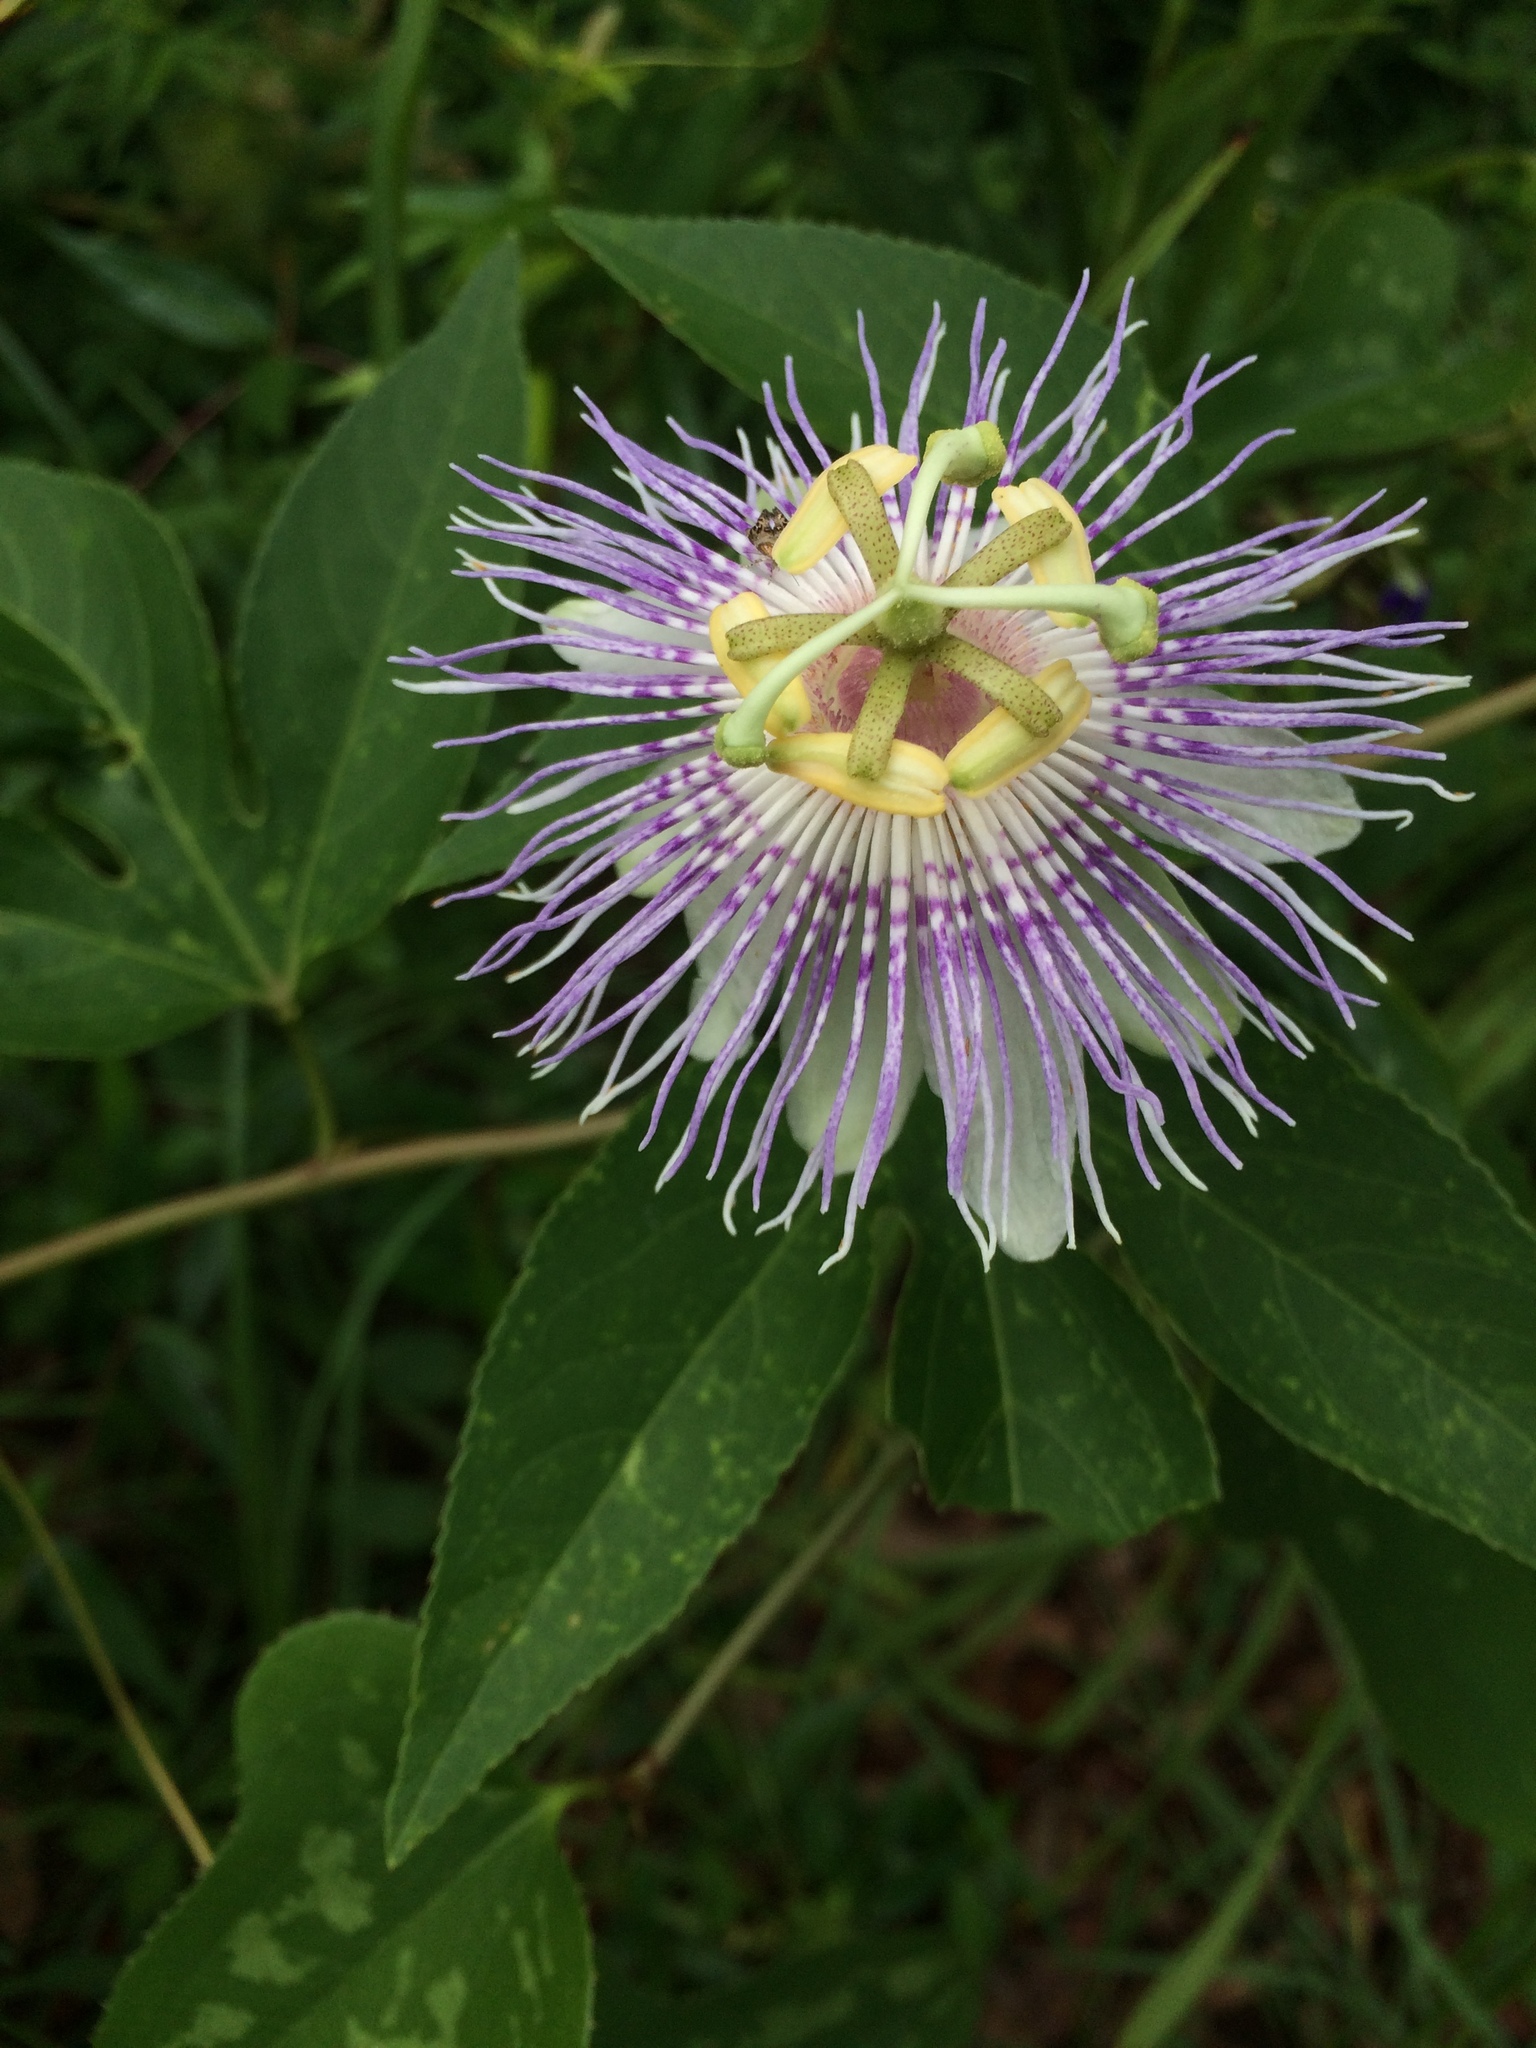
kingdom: Plantae
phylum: Tracheophyta
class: Magnoliopsida
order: Malpighiales
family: Passifloraceae
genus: Passiflora
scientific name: Passiflora incarnata
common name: Apricot-vine
